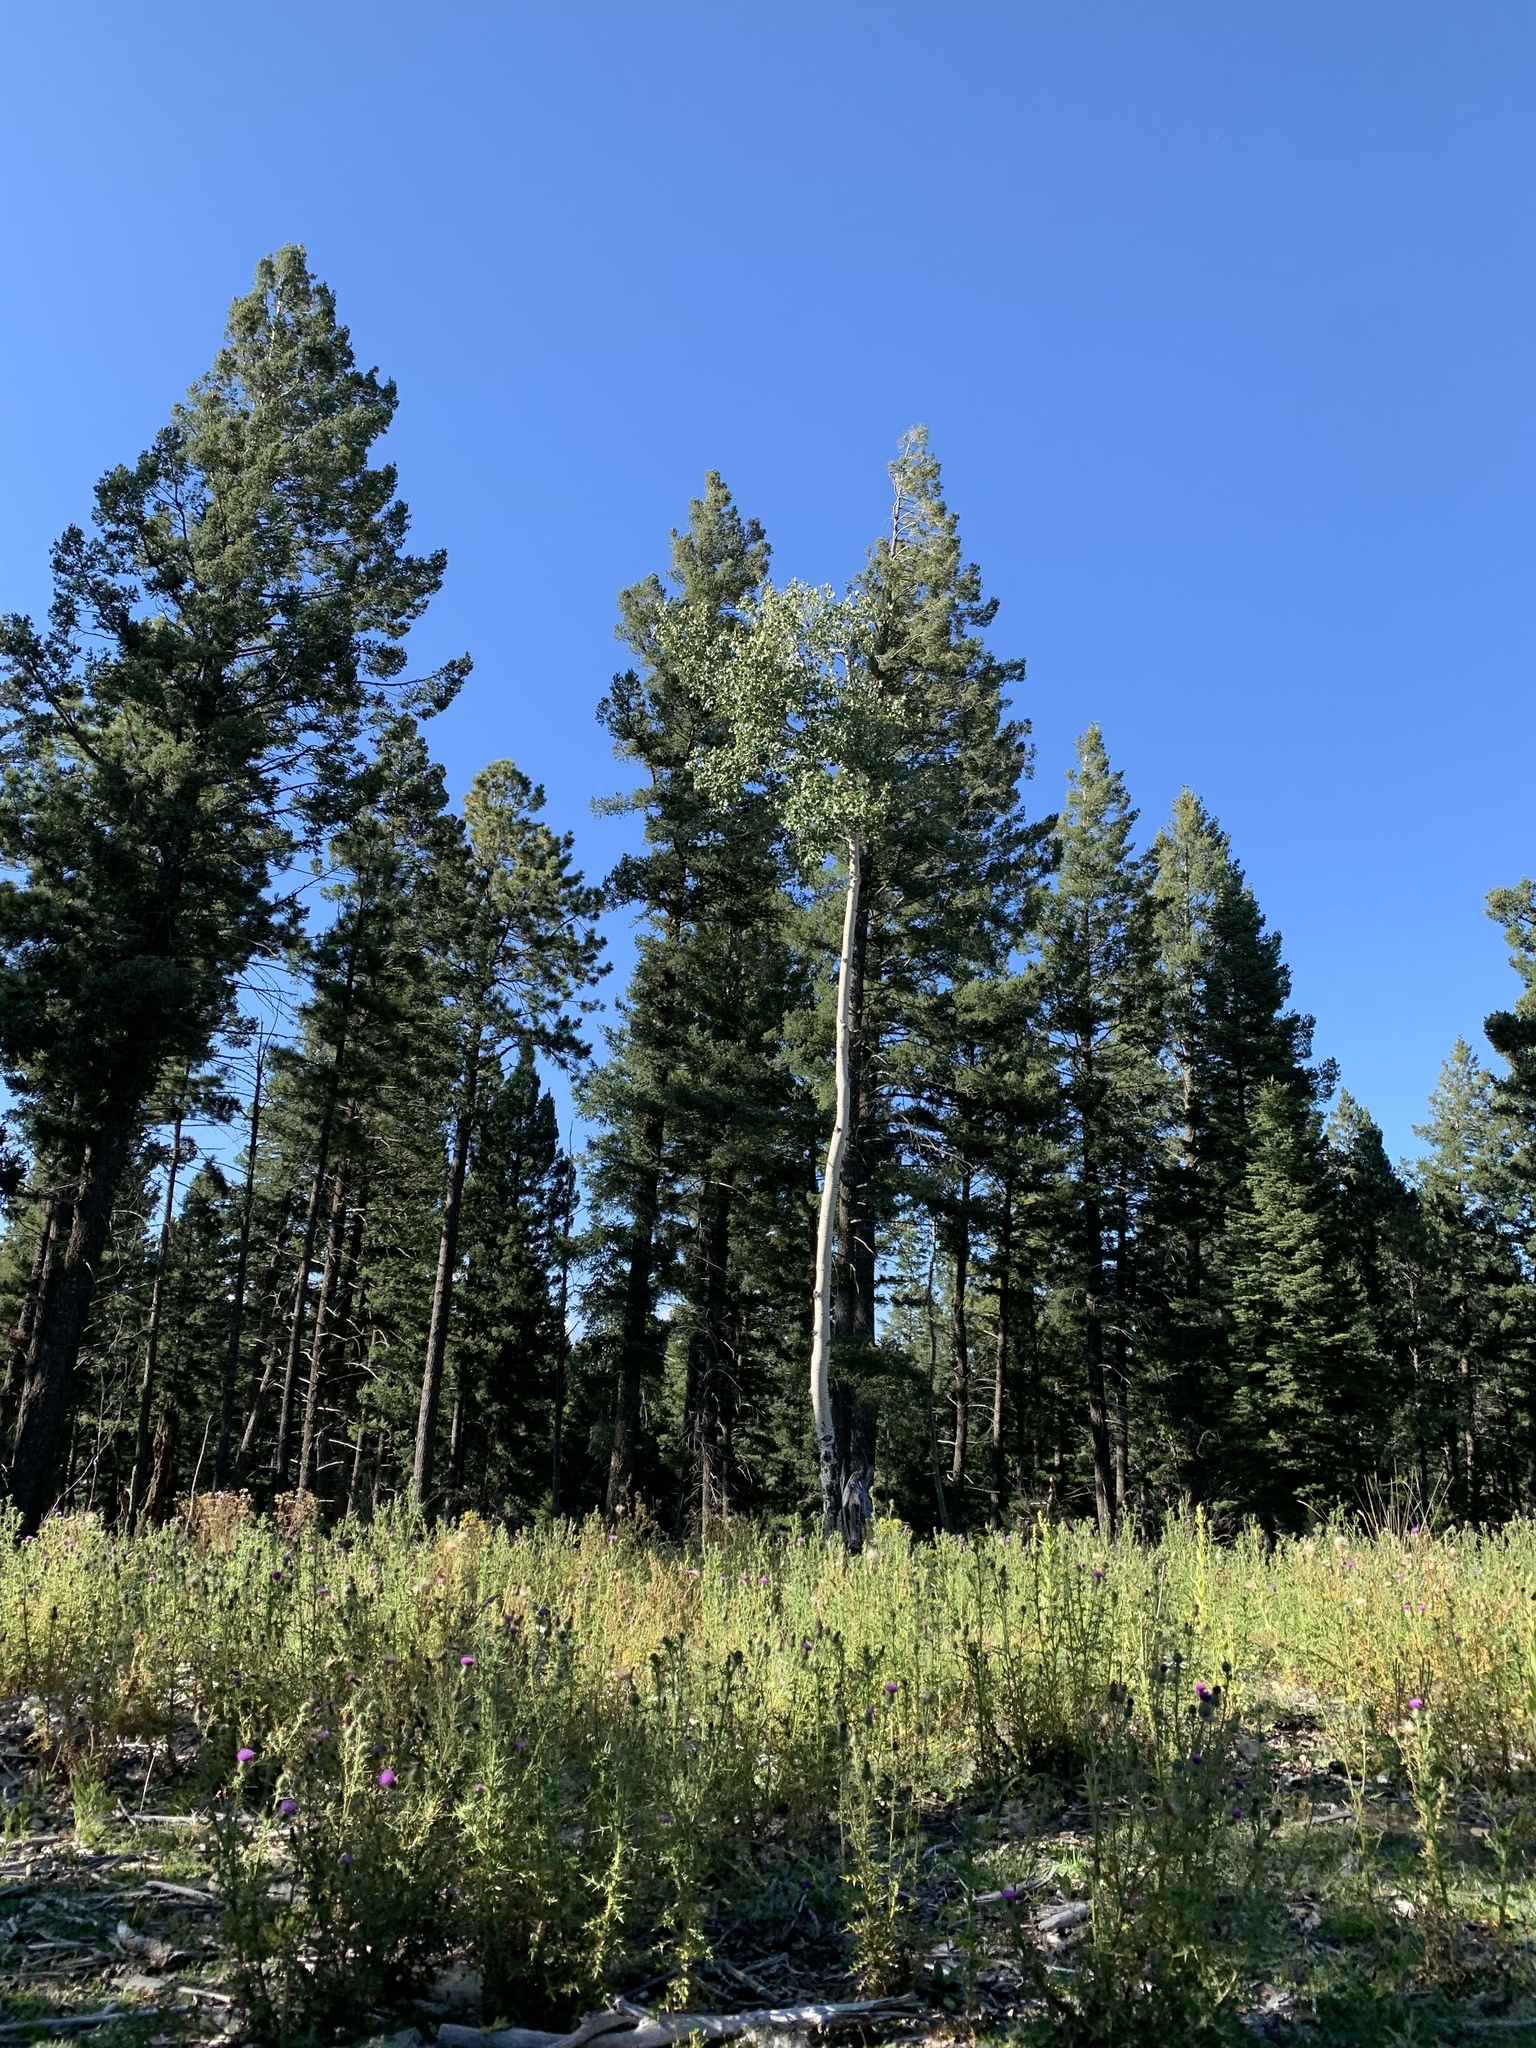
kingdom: Plantae
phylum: Tracheophyta
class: Magnoliopsida
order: Malpighiales
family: Salicaceae
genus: Populus
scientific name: Populus tremuloides
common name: Quaking aspen
